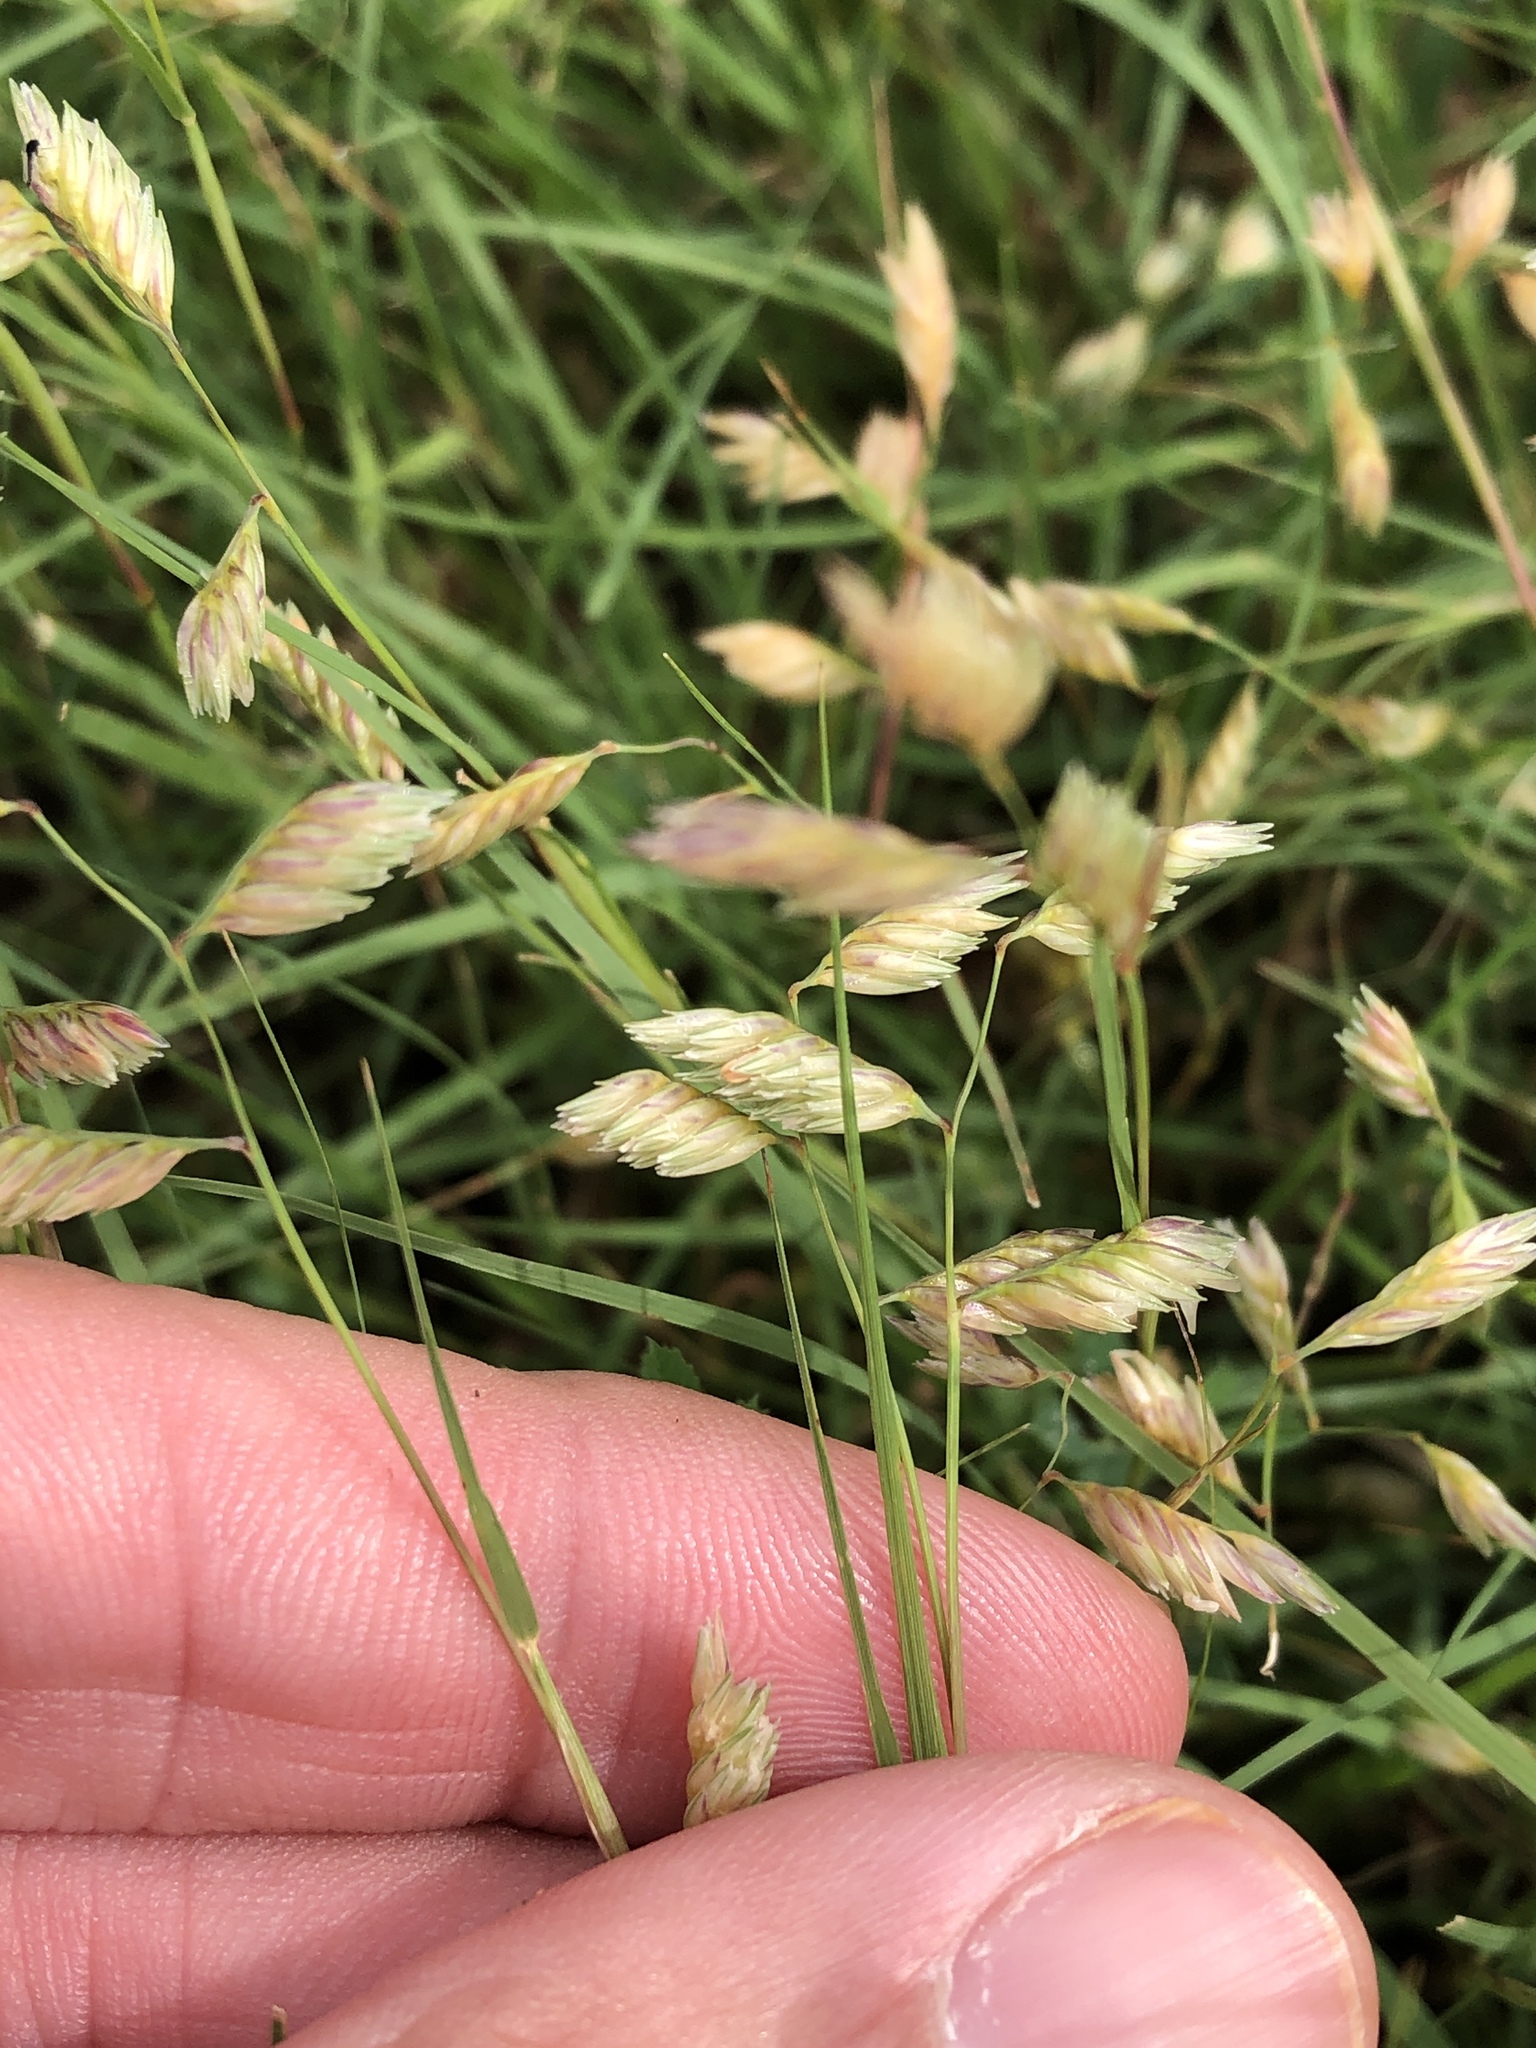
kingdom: Plantae
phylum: Tracheophyta
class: Liliopsida
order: Poales
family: Poaceae
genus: Bouteloua
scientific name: Bouteloua dactyloides
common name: Buffalo grass
